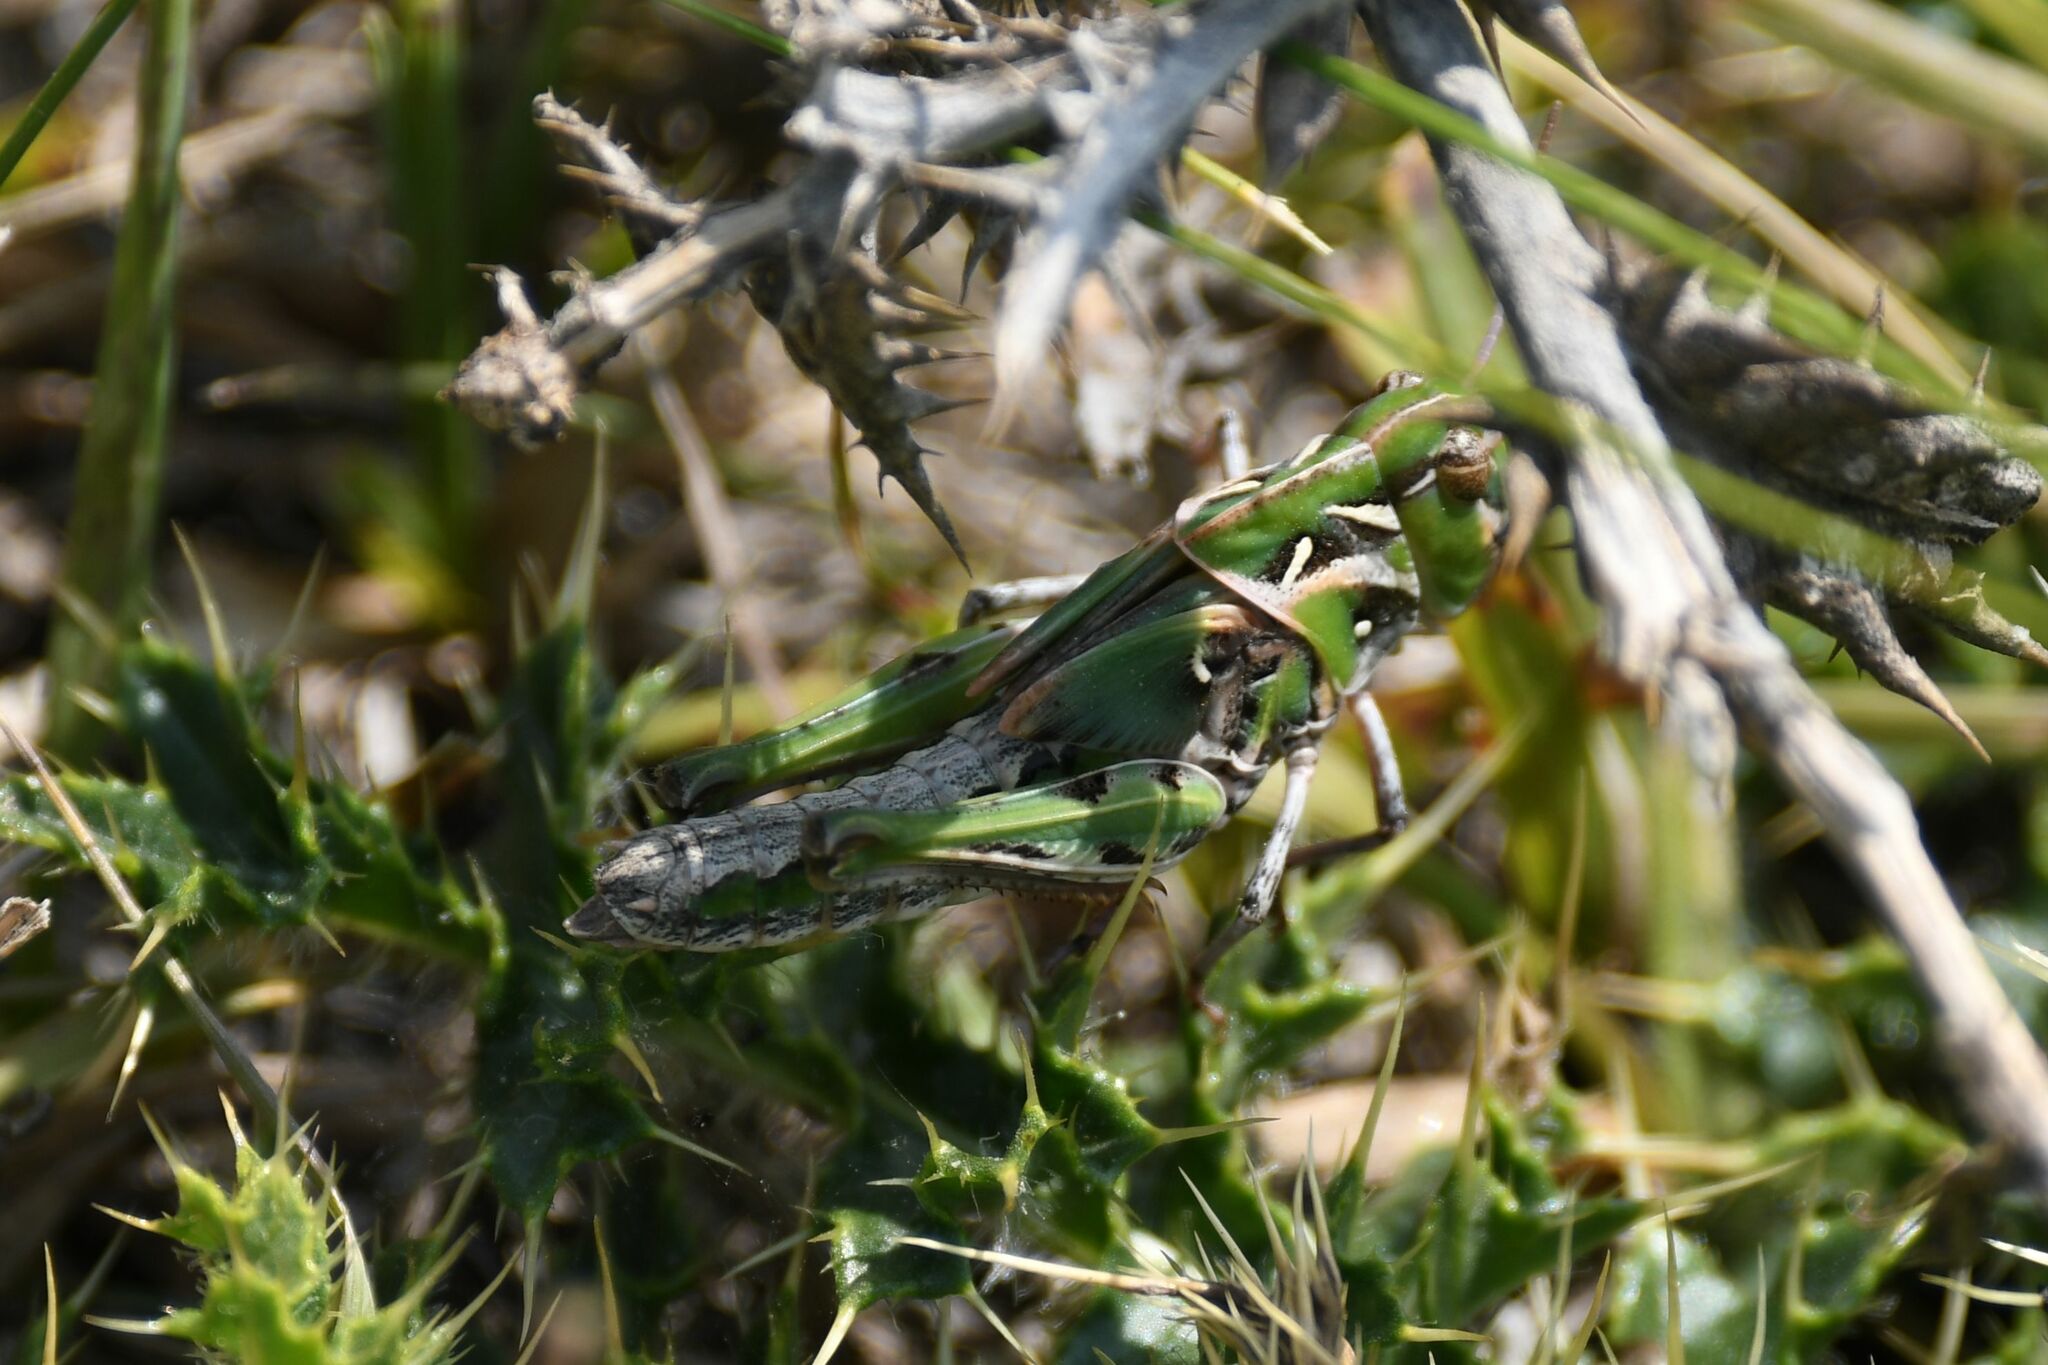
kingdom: Animalia
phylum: Arthropoda
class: Insecta
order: Orthoptera
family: Acrididae
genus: Oedaleus
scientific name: Oedaleus decorus
